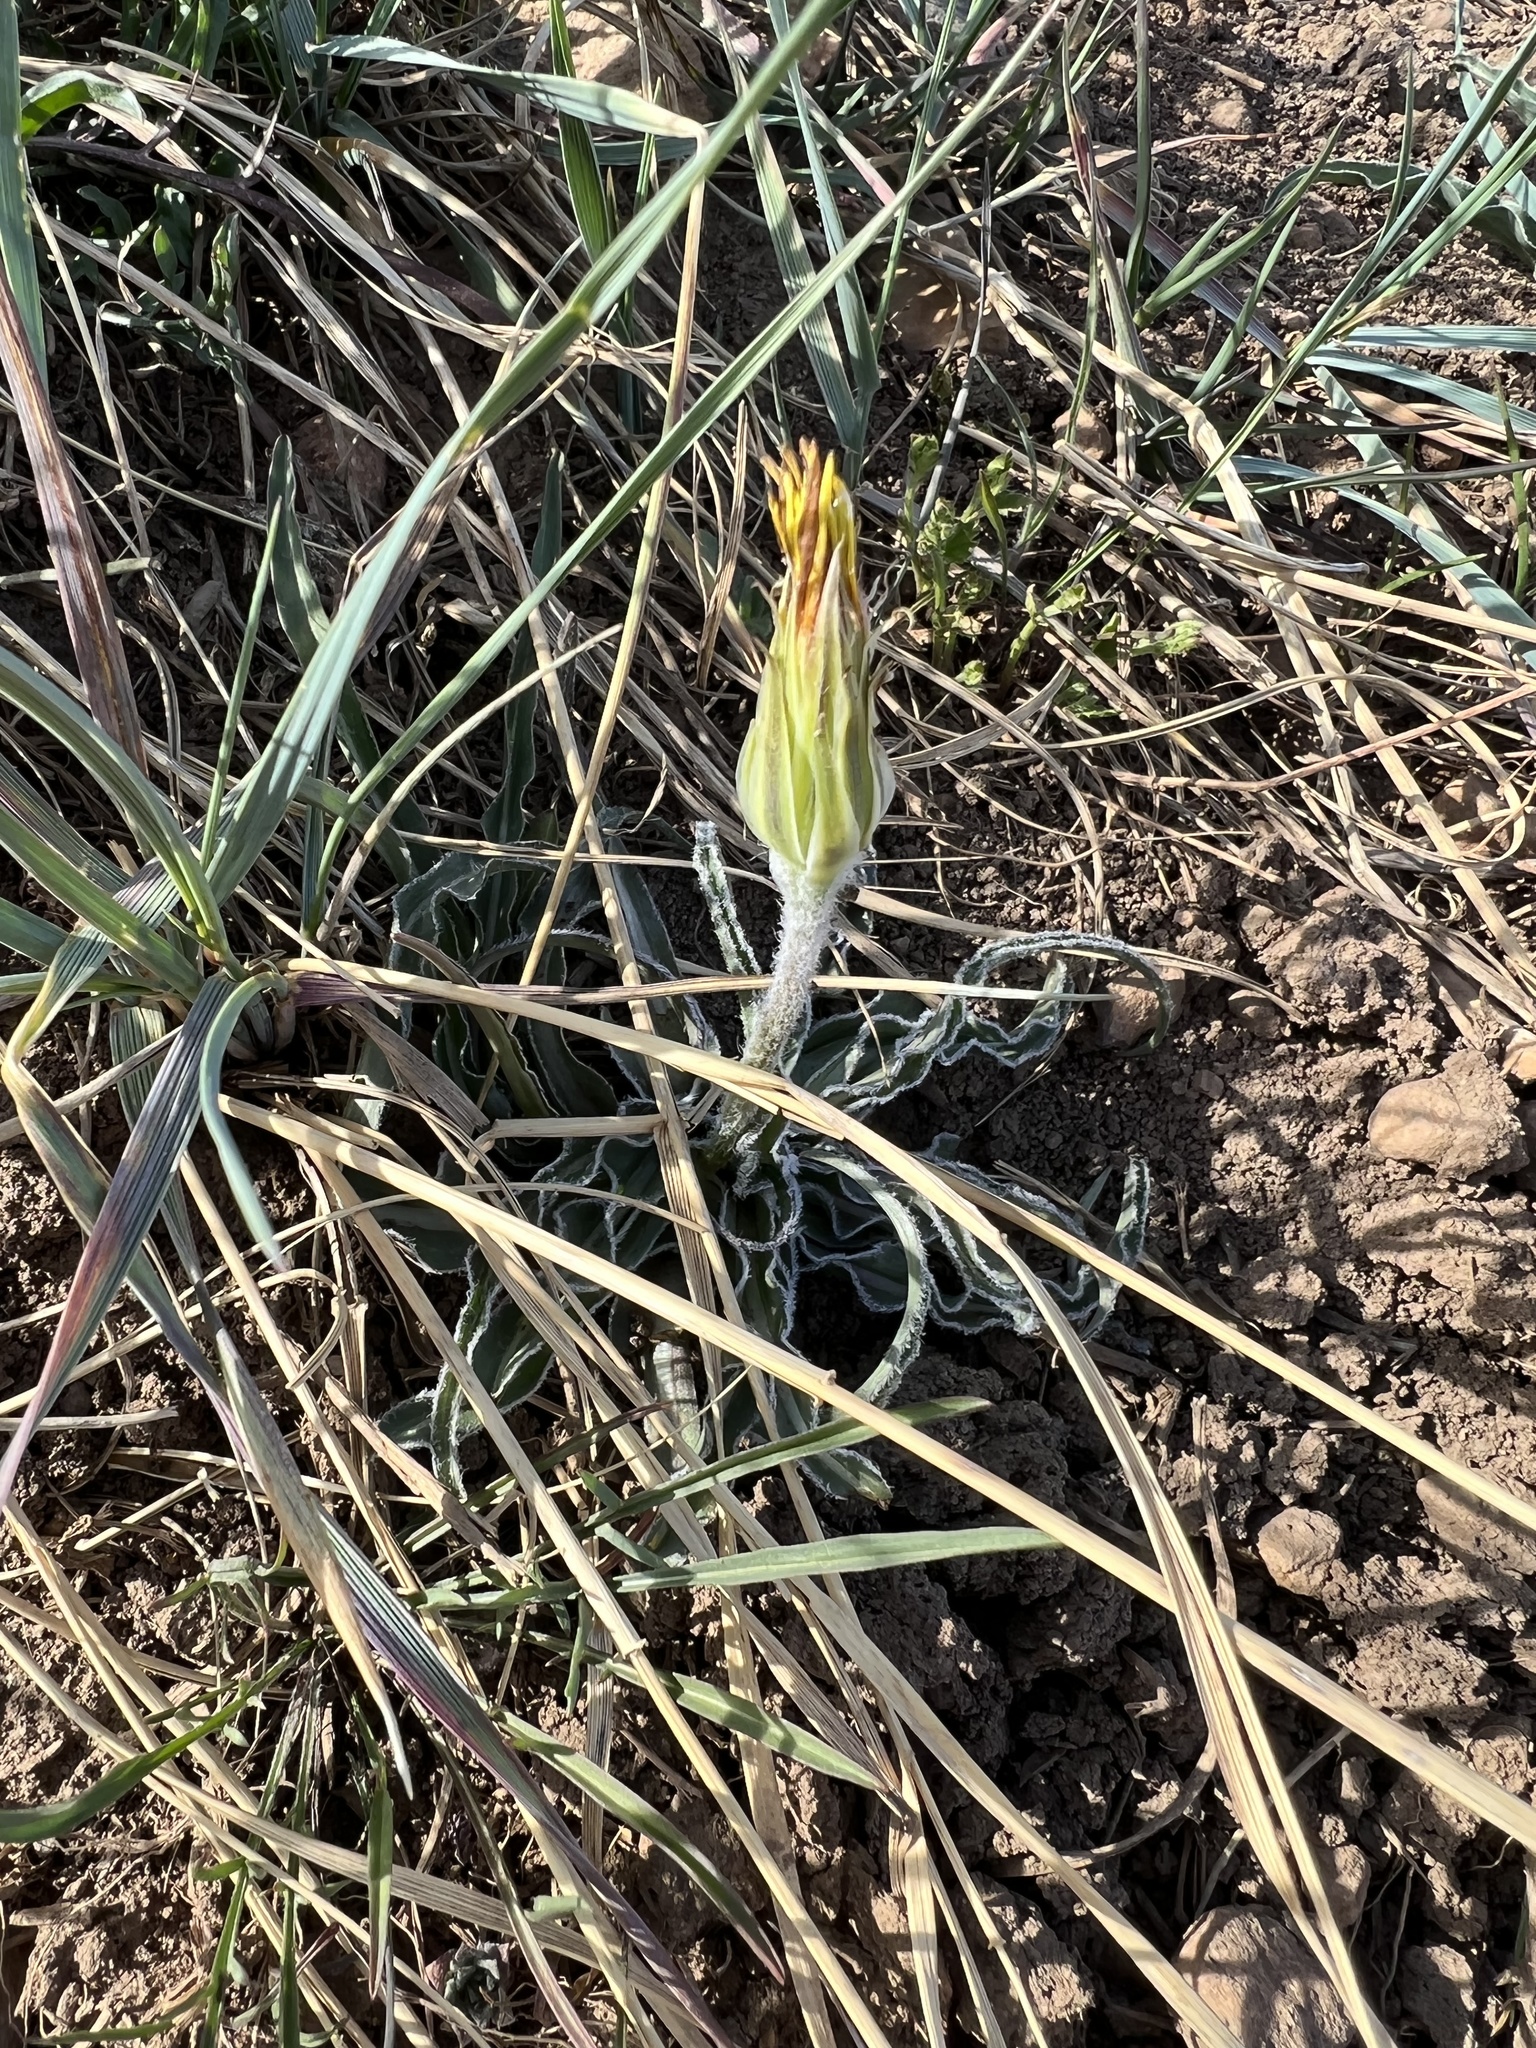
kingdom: Plantae
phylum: Tracheophyta
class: Magnoliopsida
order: Asterales
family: Asteraceae
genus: Microseris
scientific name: Microseris cuspidata
